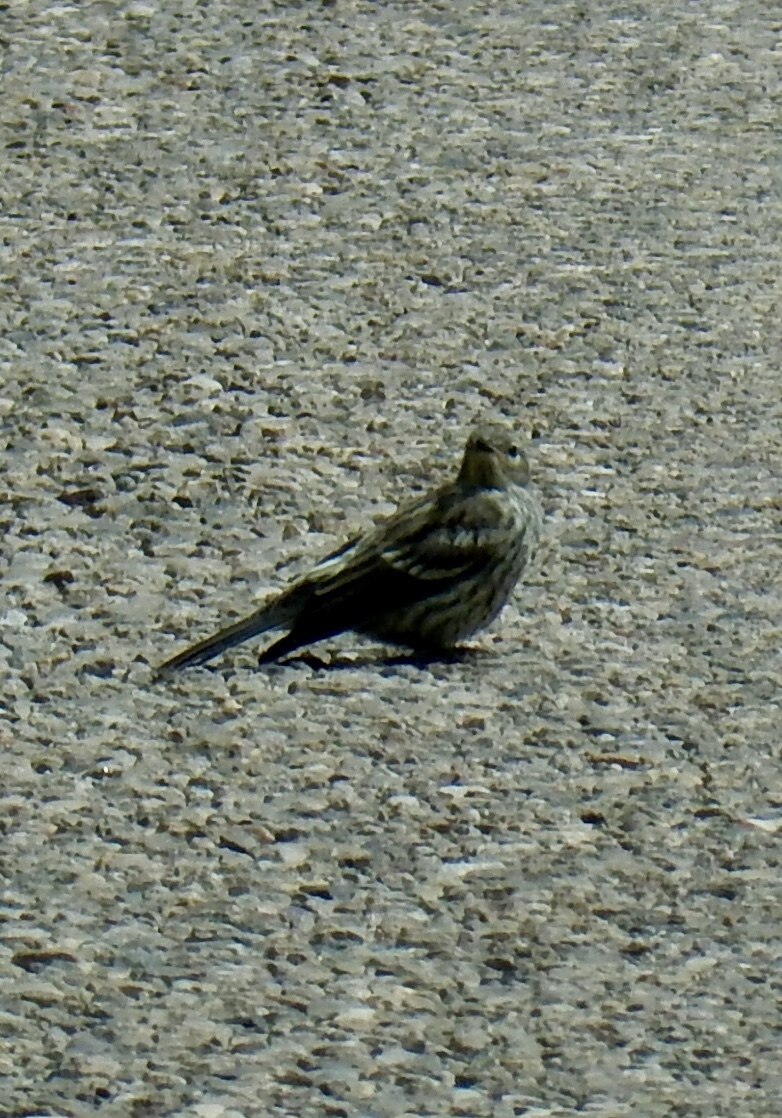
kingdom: Animalia
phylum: Chordata
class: Aves
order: Passeriformes
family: Parulidae
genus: Setophaga
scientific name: Setophaga coronata
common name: Myrtle warbler
